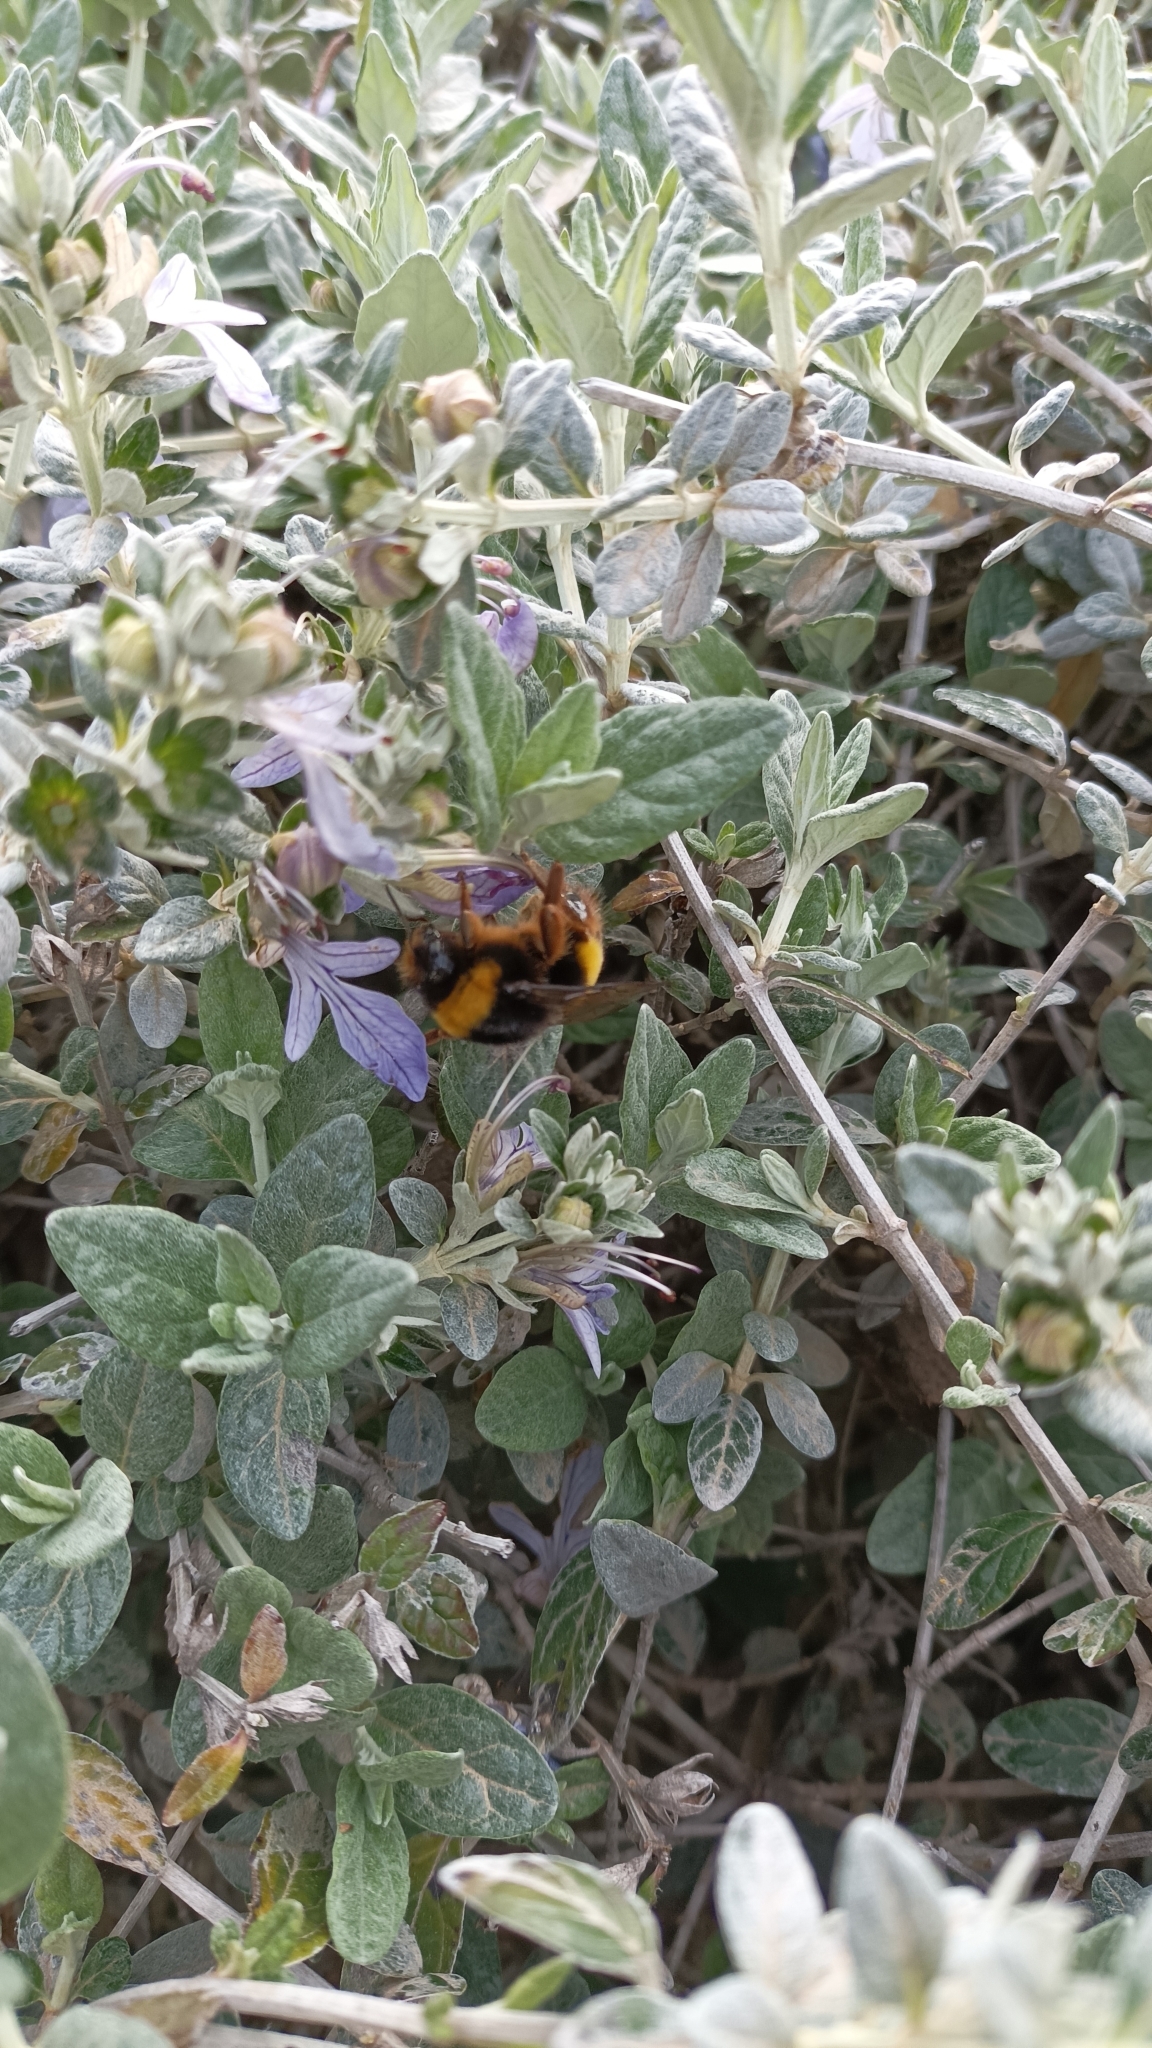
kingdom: Animalia
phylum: Arthropoda
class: Insecta
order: Hymenoptera
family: Apidae
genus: Bombus
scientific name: Bombus terrestris
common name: Buff-tailed bumblebee
